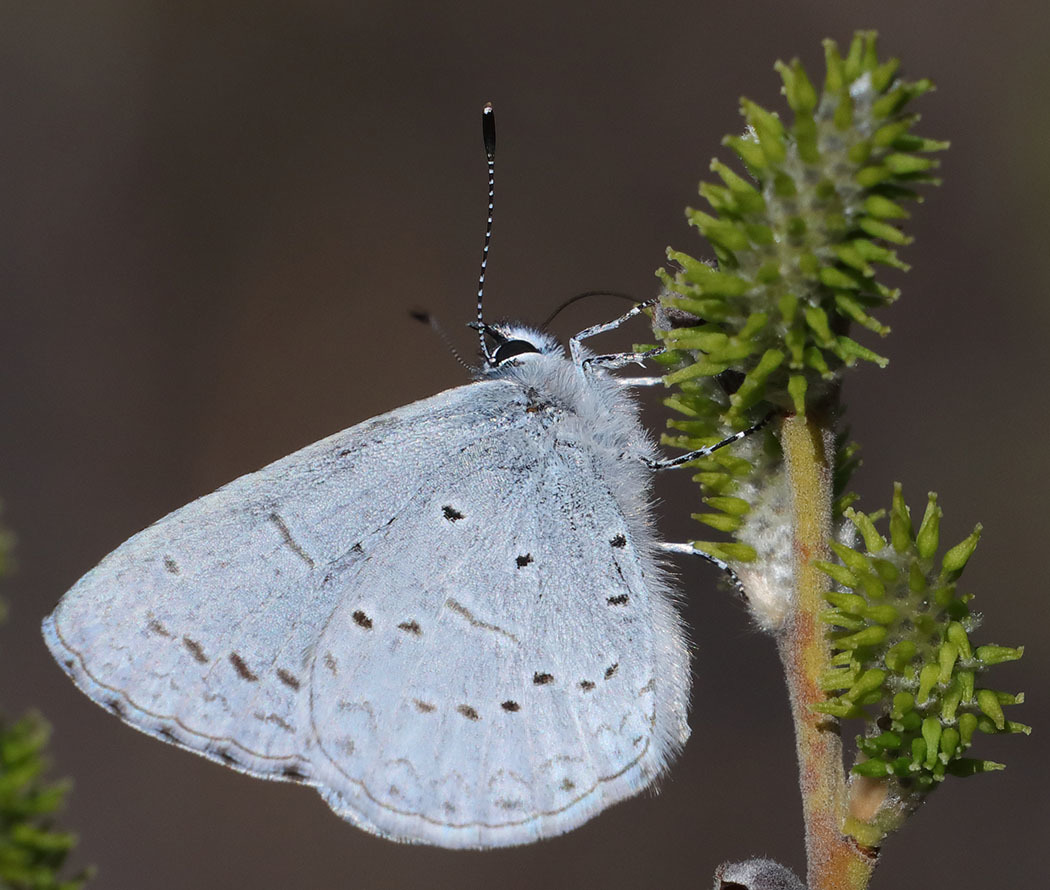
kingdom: Animalia
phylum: Arthropoda
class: Insecta
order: Lepidoptera
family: Lycaenidae
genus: Celastrina
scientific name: Celastrina ladon
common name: Spring azure
